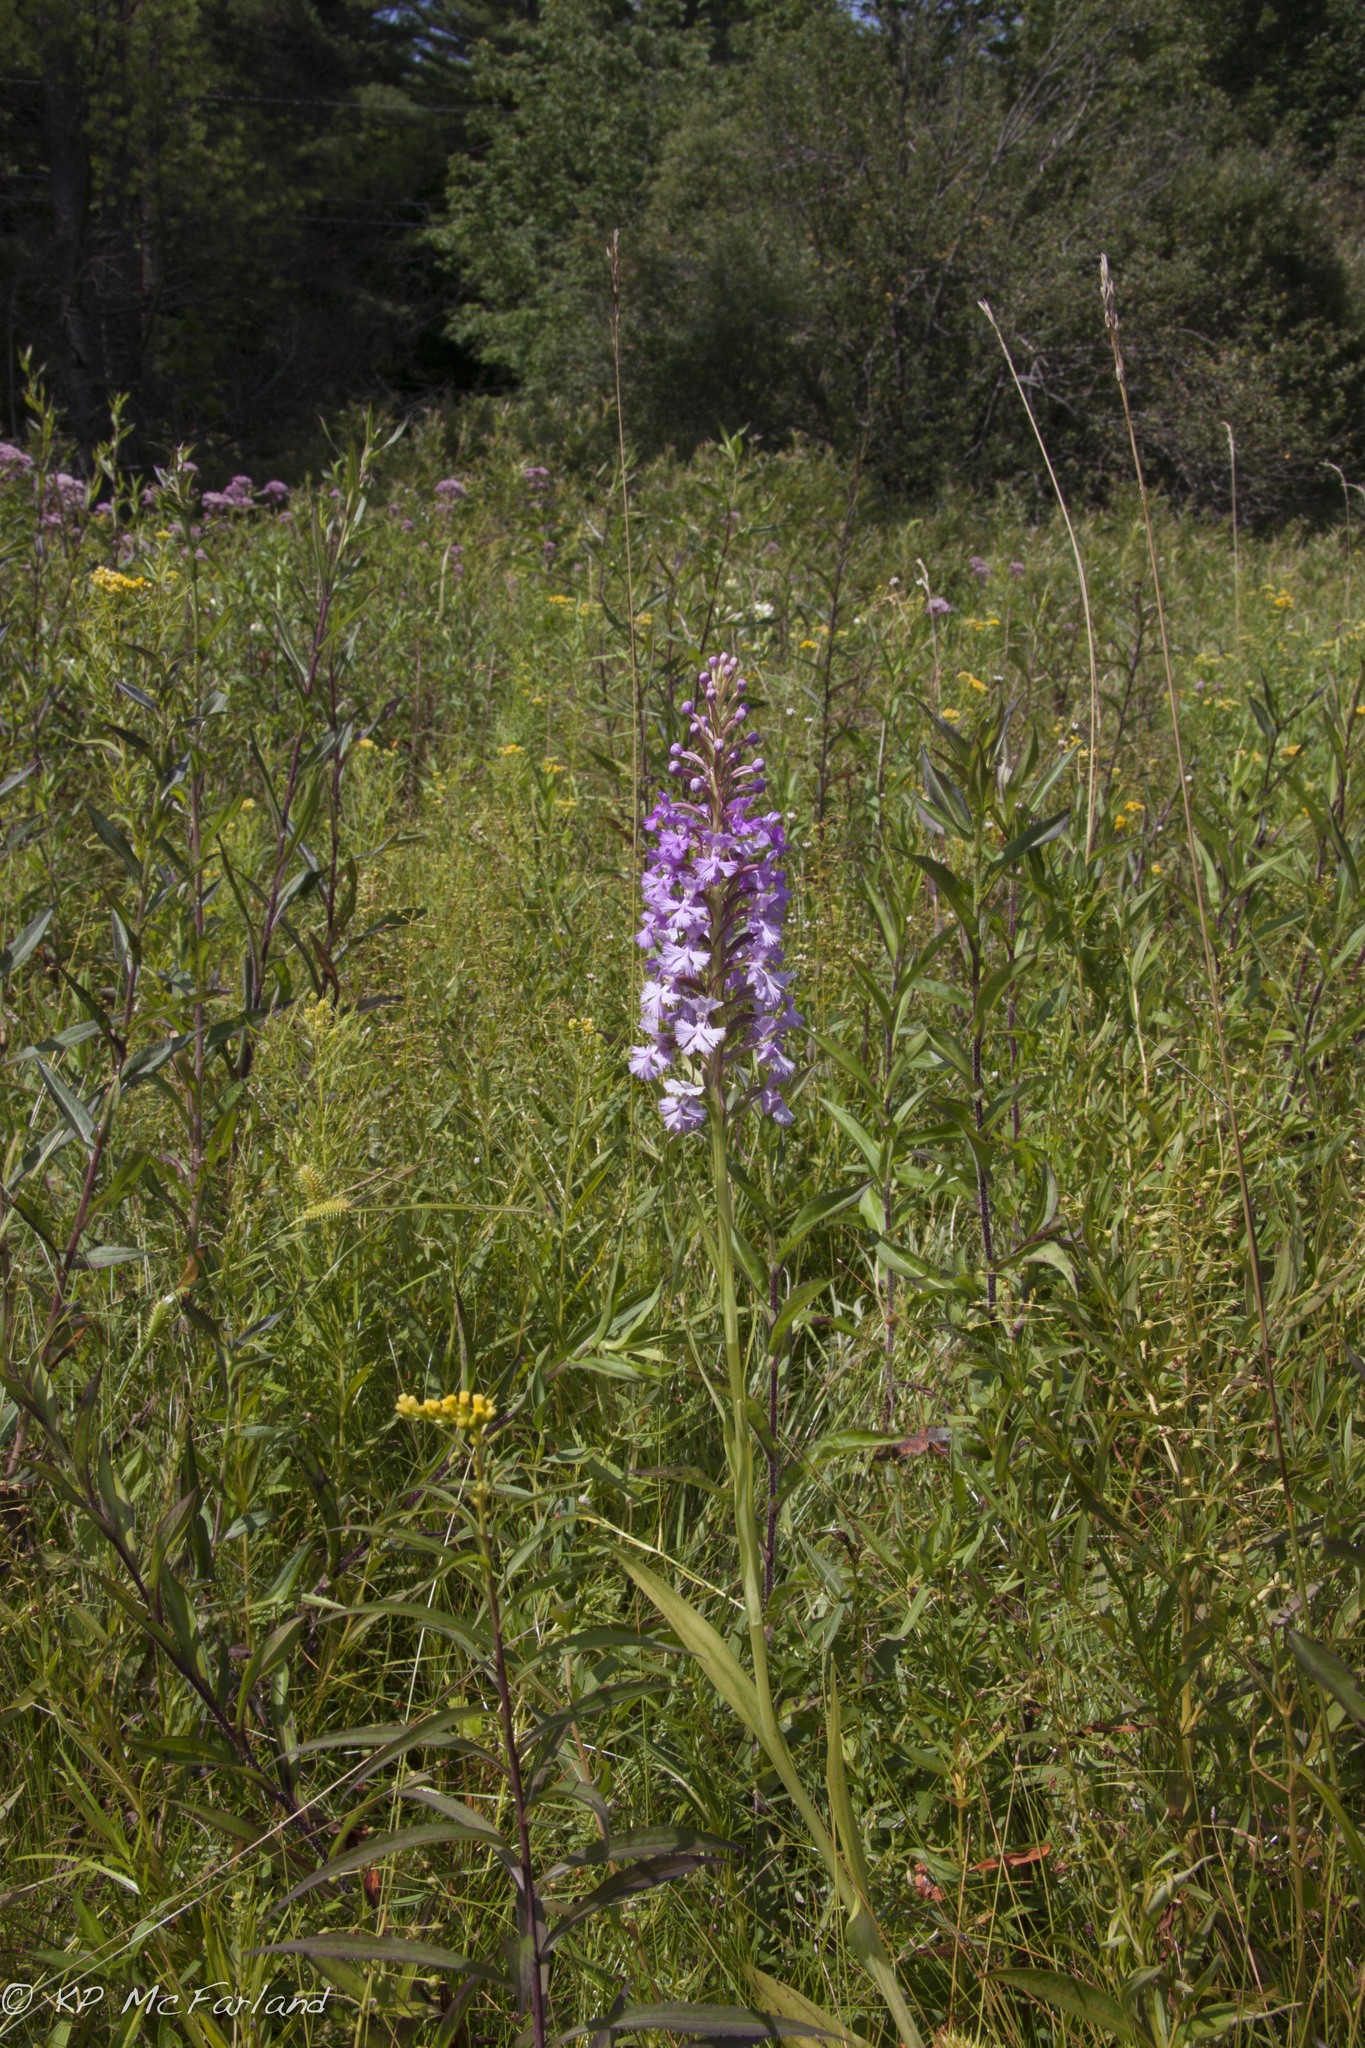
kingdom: Plantae
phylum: Tracheophyta
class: Liliopsida
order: Asparagales
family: Orchidaceae
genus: Platanthera
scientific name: Platanthera psycodes
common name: Lesser purple fringed orchid
